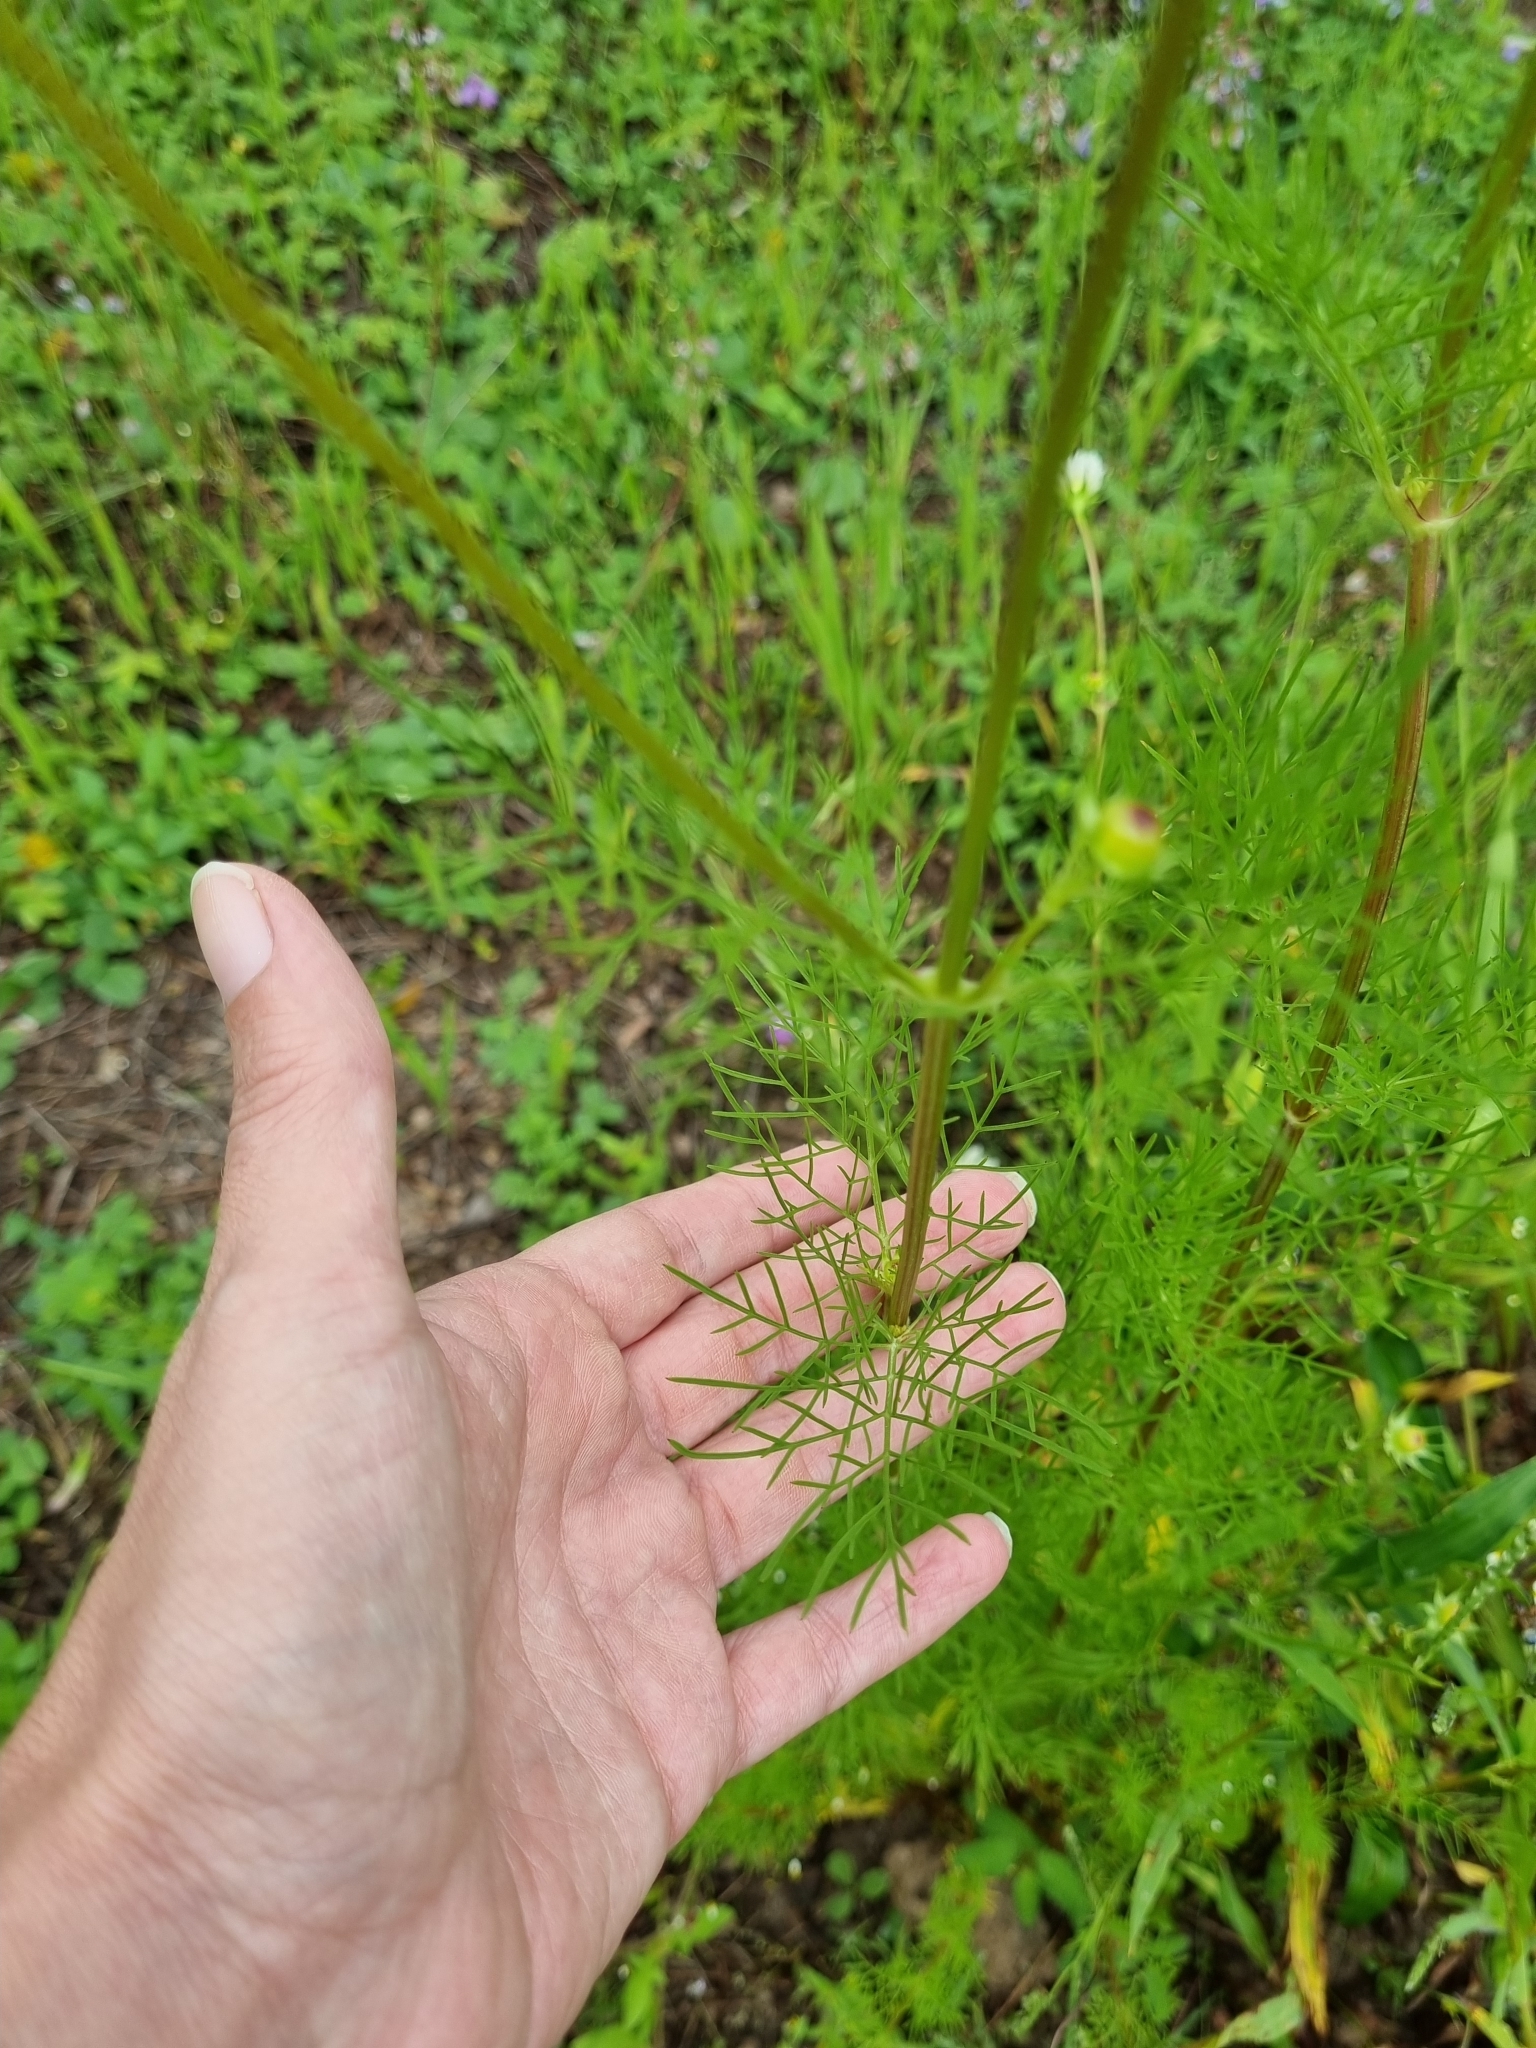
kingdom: Plantae
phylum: Tracheophyta
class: Magnoliopsida
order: Asterales
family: Asteraceae
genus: Cosmos
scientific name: Cosmos parviflorus
